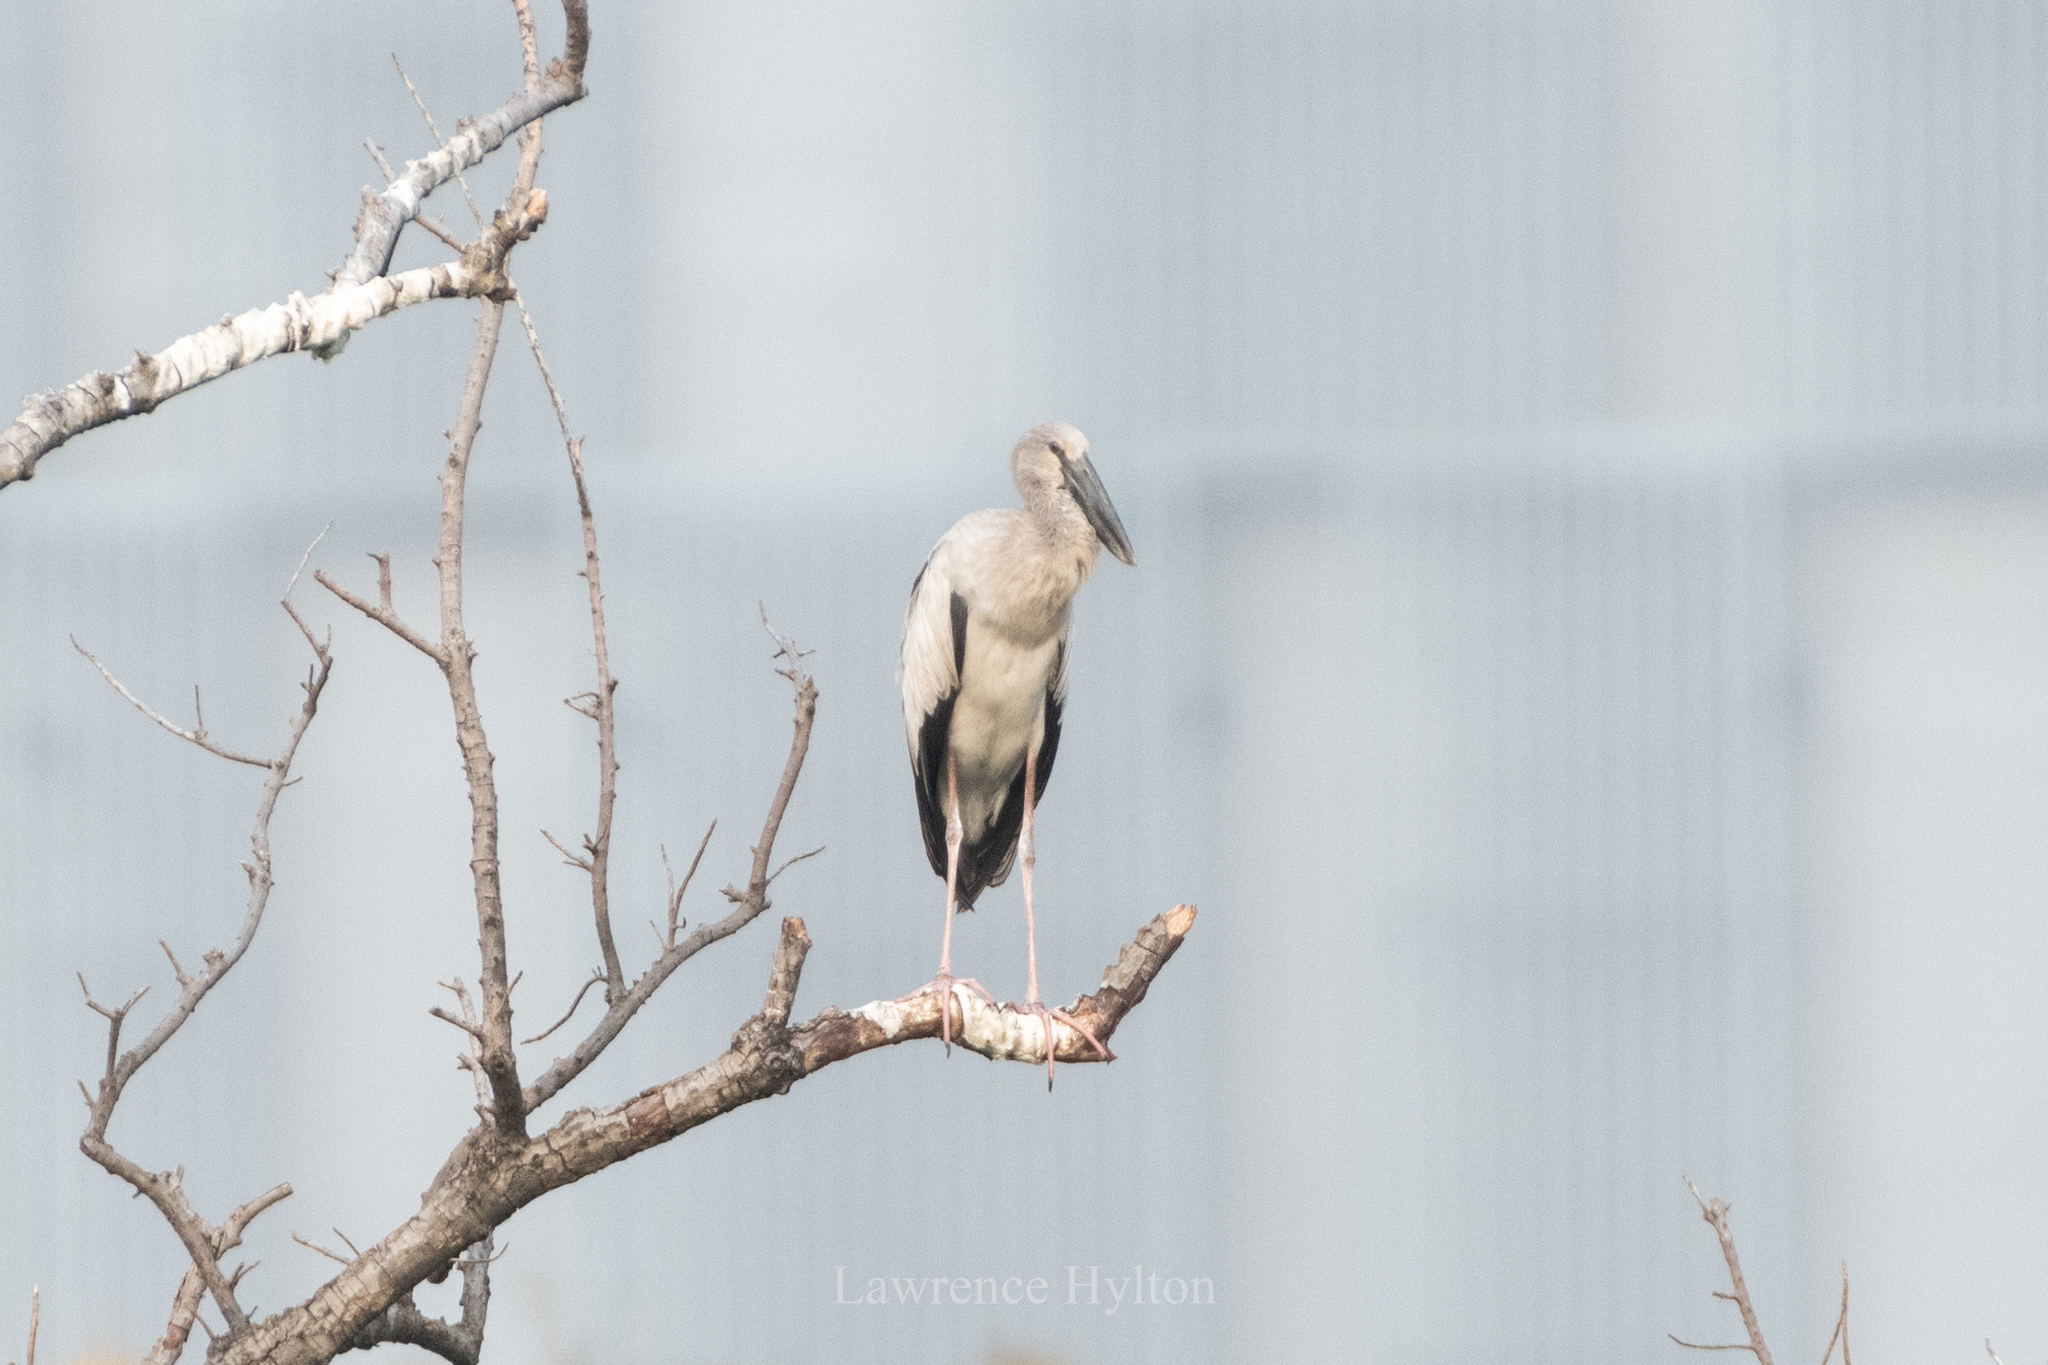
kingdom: Animalia
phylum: Chordata
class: Aves
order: Ciconiiformes
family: Ciconiidae
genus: Anastomus
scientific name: Anastomus oscitans
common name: Asian openbill
